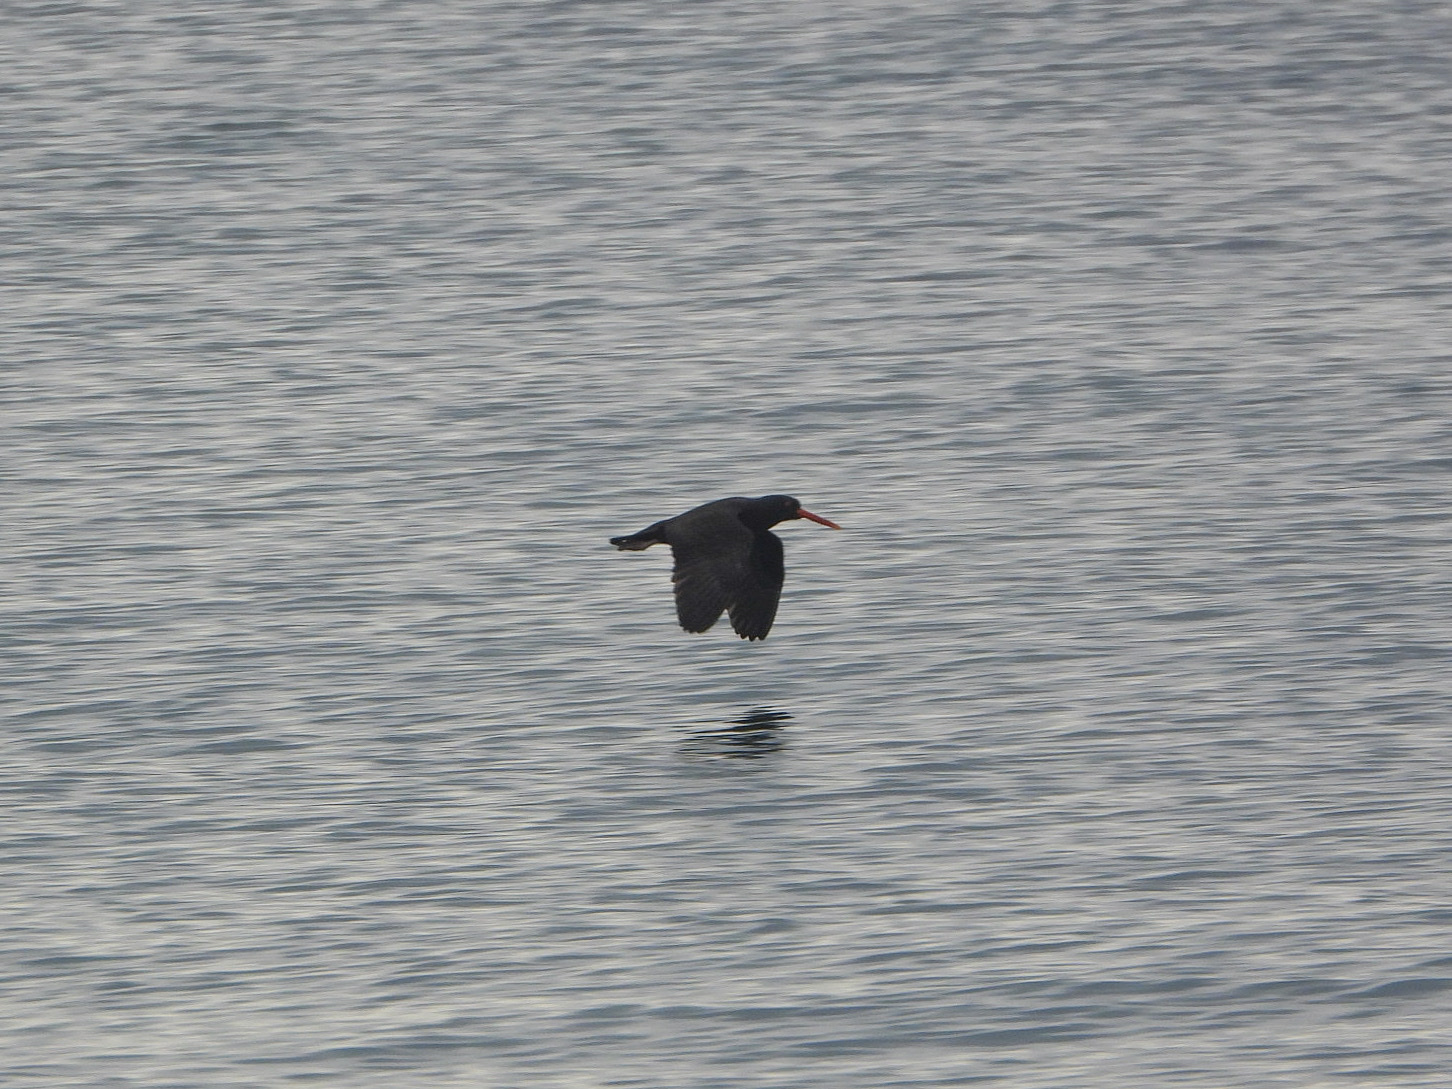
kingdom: Animalia
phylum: Chordata
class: Aves
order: Charadriiformes
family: Haematopodidae
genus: Haematopus
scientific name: Haematopus bachmani
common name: Black oystercatcher
